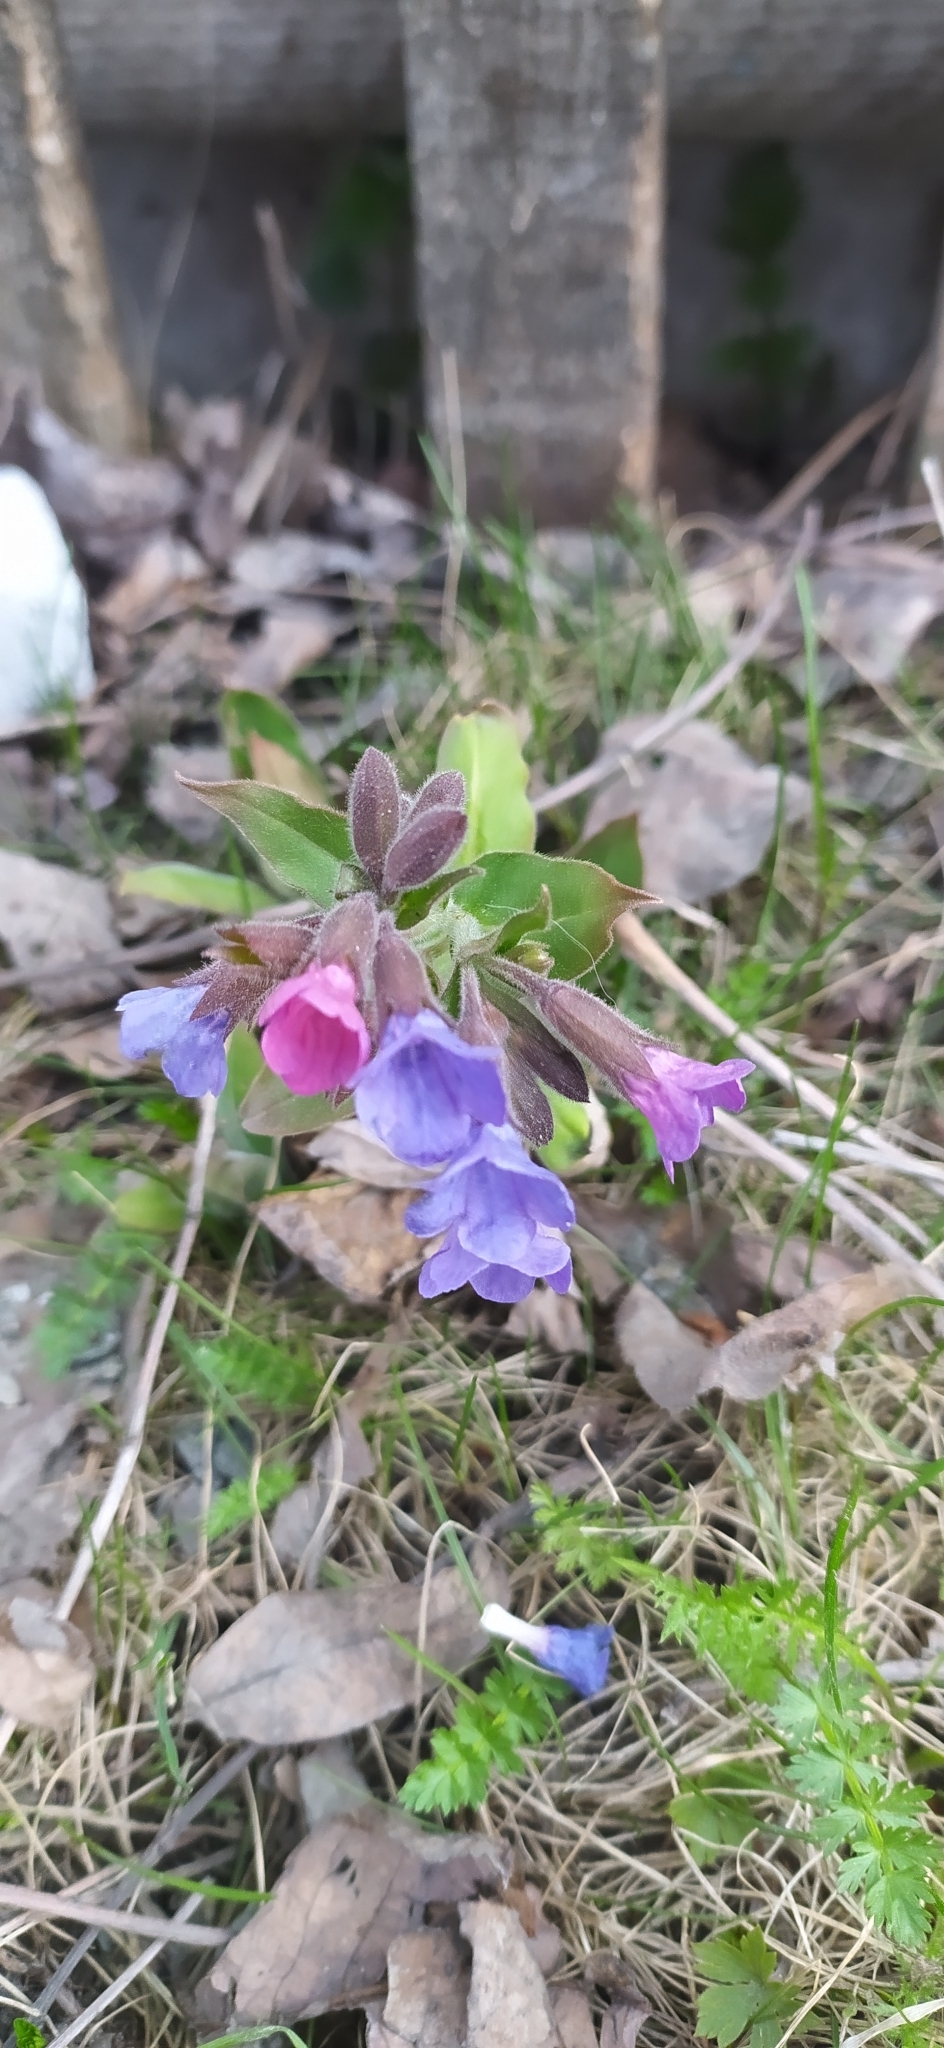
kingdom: Plantae
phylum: Tracheophyta
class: Magnoliopsida
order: Boraginales
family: Boraginaceae
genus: Pulmonaria
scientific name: Pulmonaria mollis
